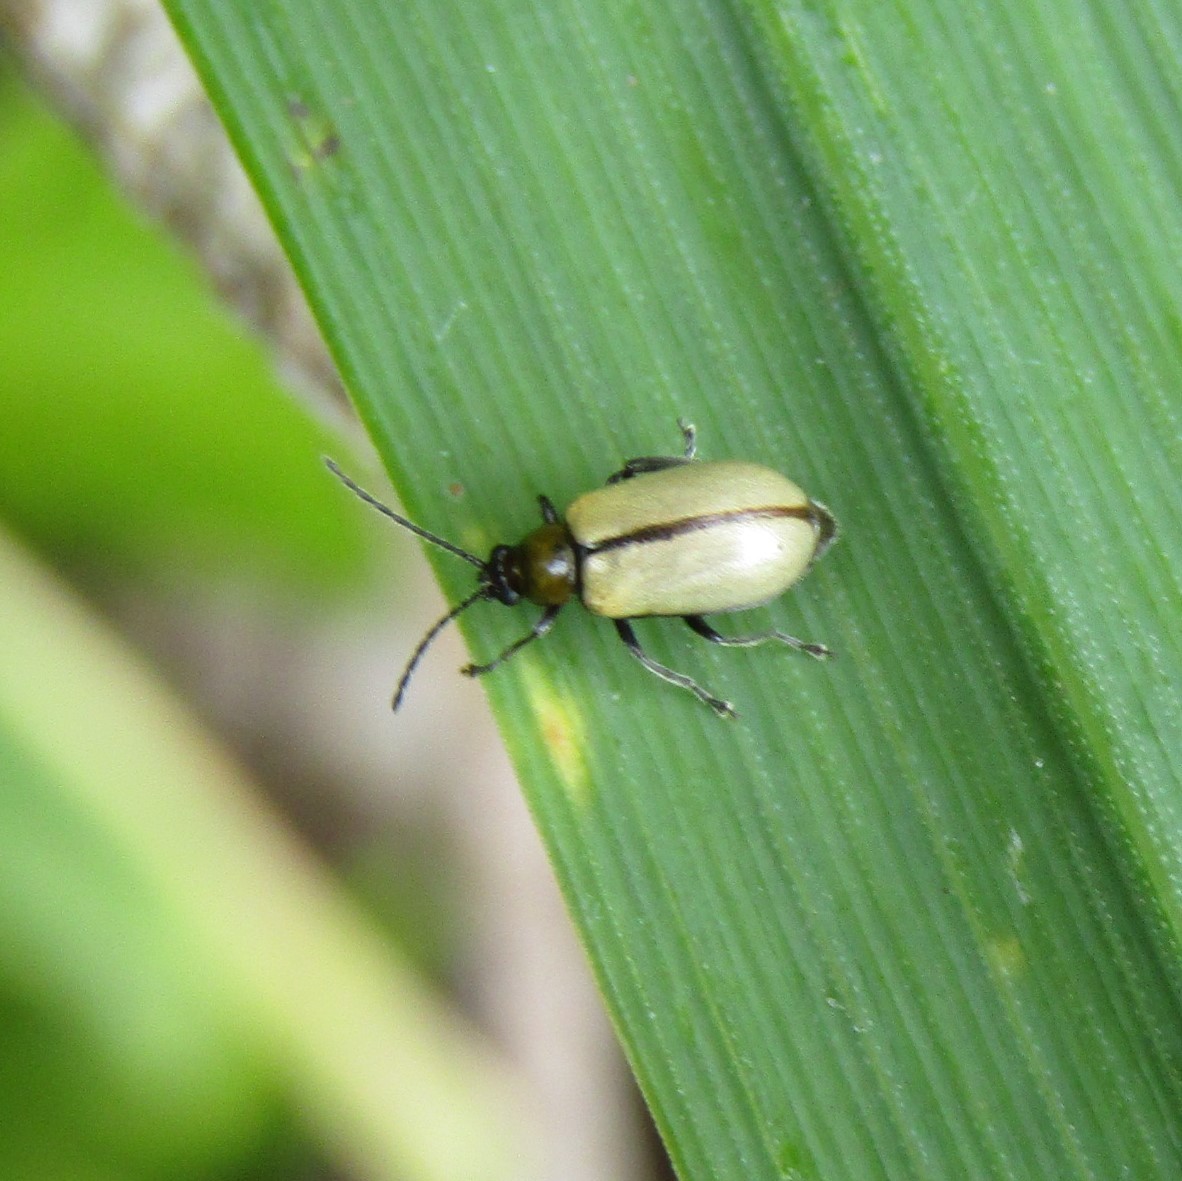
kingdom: Animalia
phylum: Arthropoda
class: Insecta
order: Coleoptera
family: Chrysomelidae
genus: Adoxia
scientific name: Adoxia
